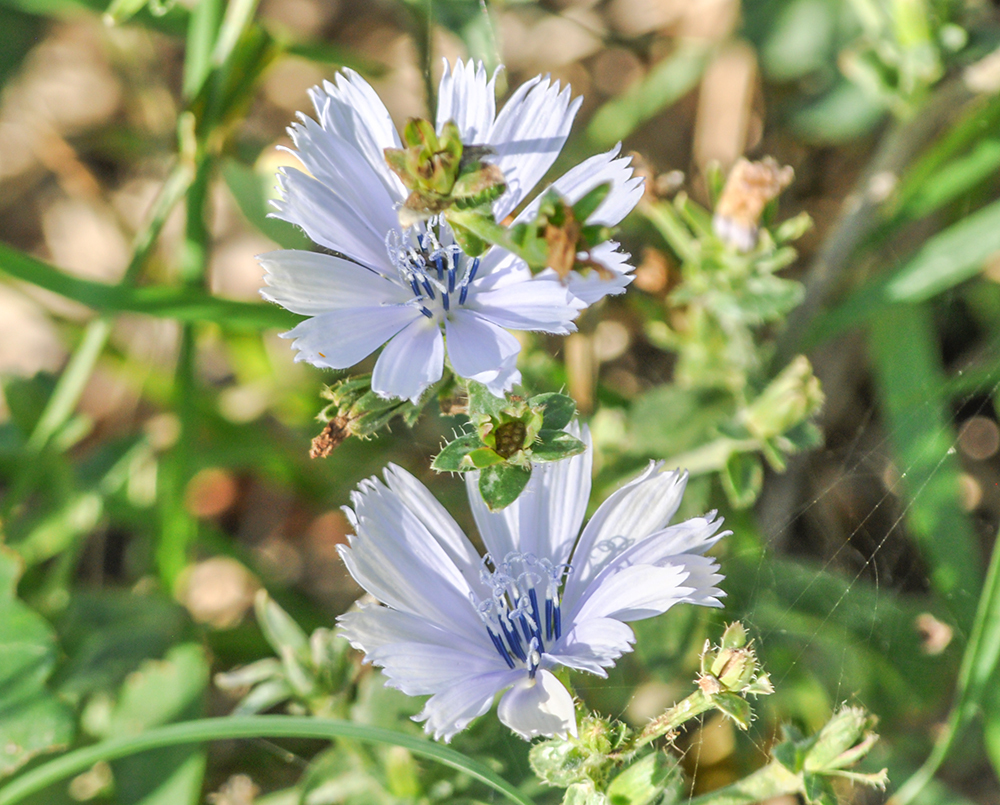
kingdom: Plantae
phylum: Tracheophyta
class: Magnoliopsida
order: Asterales
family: Asteraceae
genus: Cichorium
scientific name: Cichorium intybus
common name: Chicory
